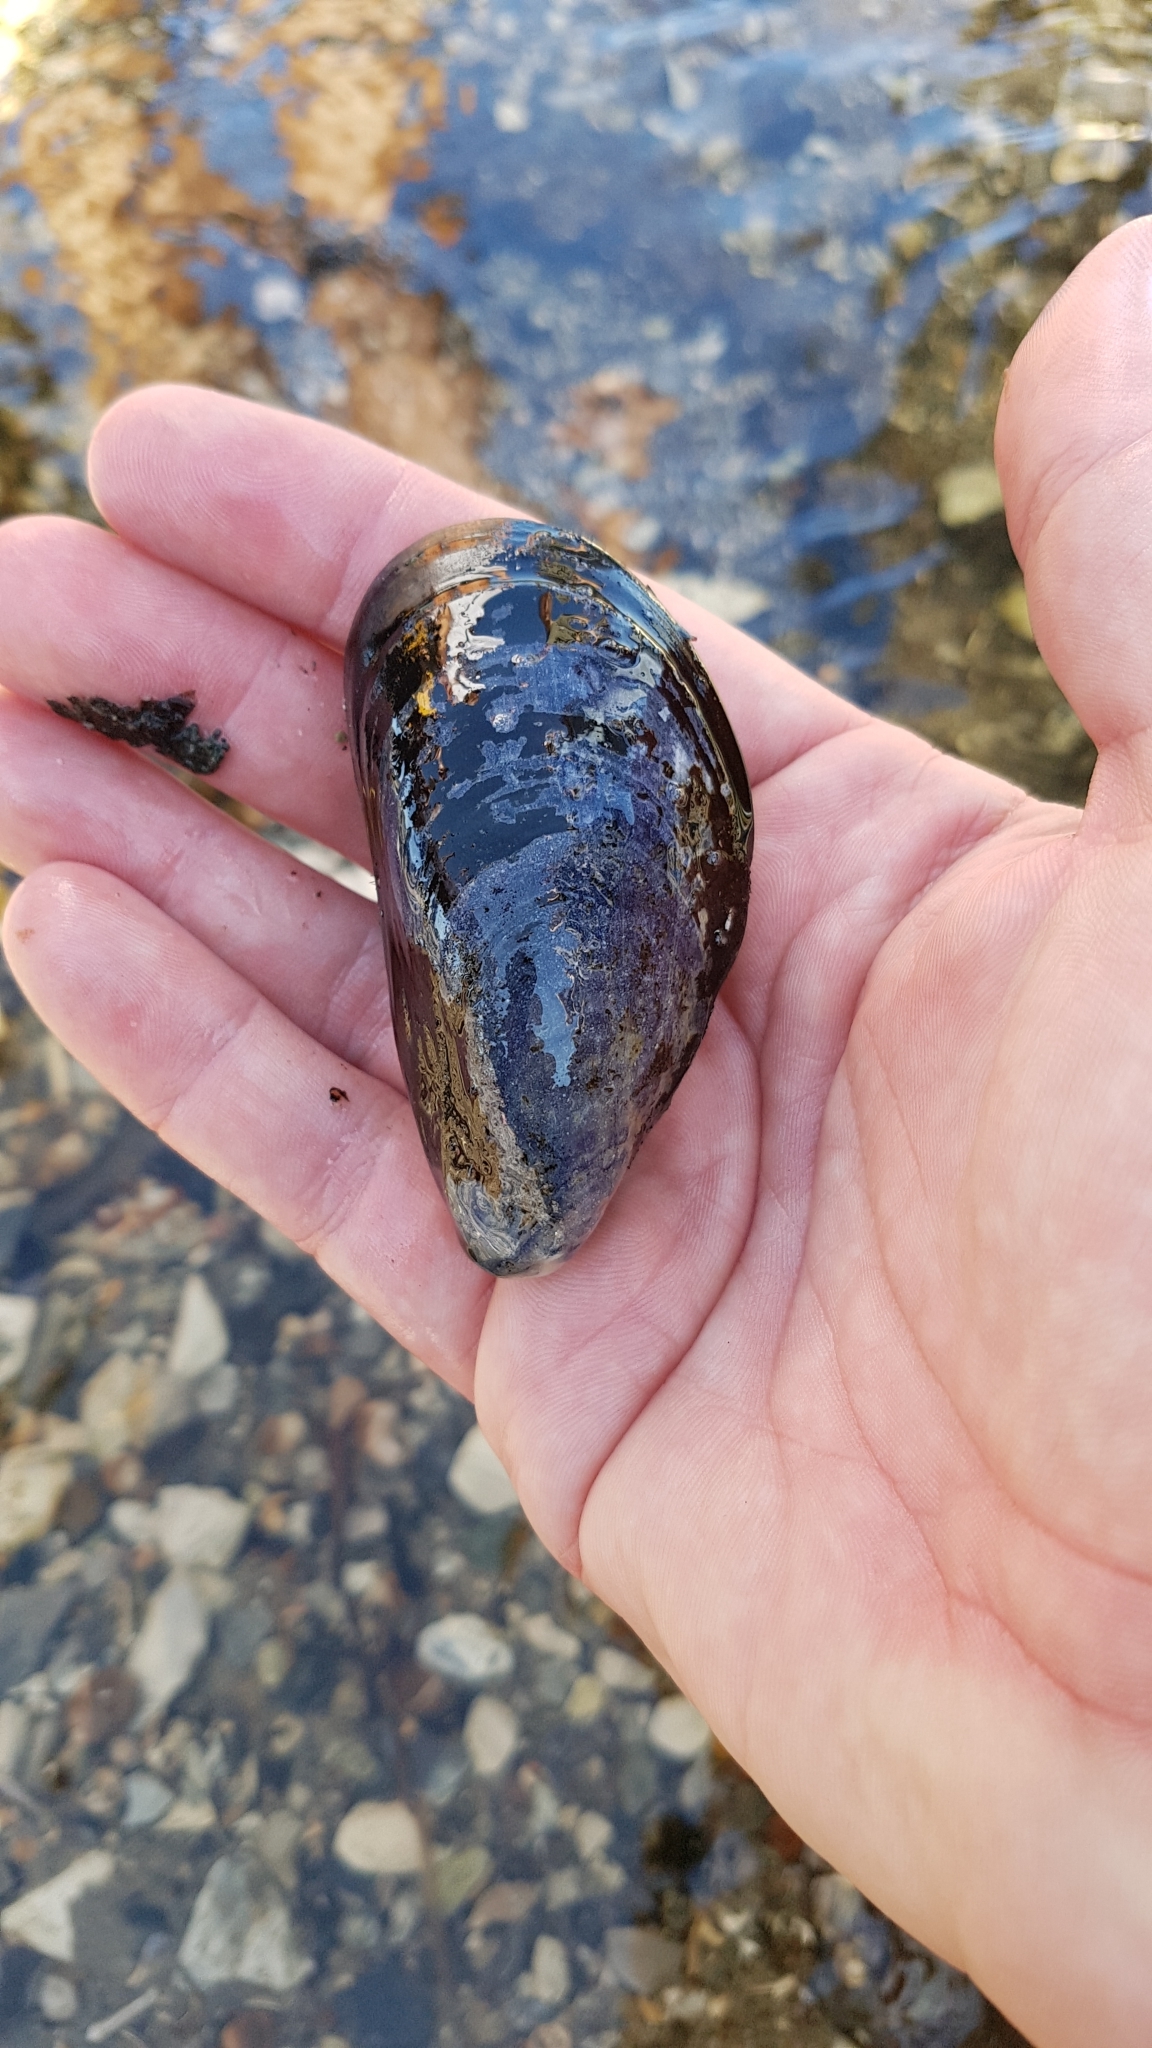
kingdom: Animalia
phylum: Mollusca
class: Bivalvia
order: Mytilida
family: Mytilidae
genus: Mytilus
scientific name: Mytilus edulis
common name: Blue mussel
